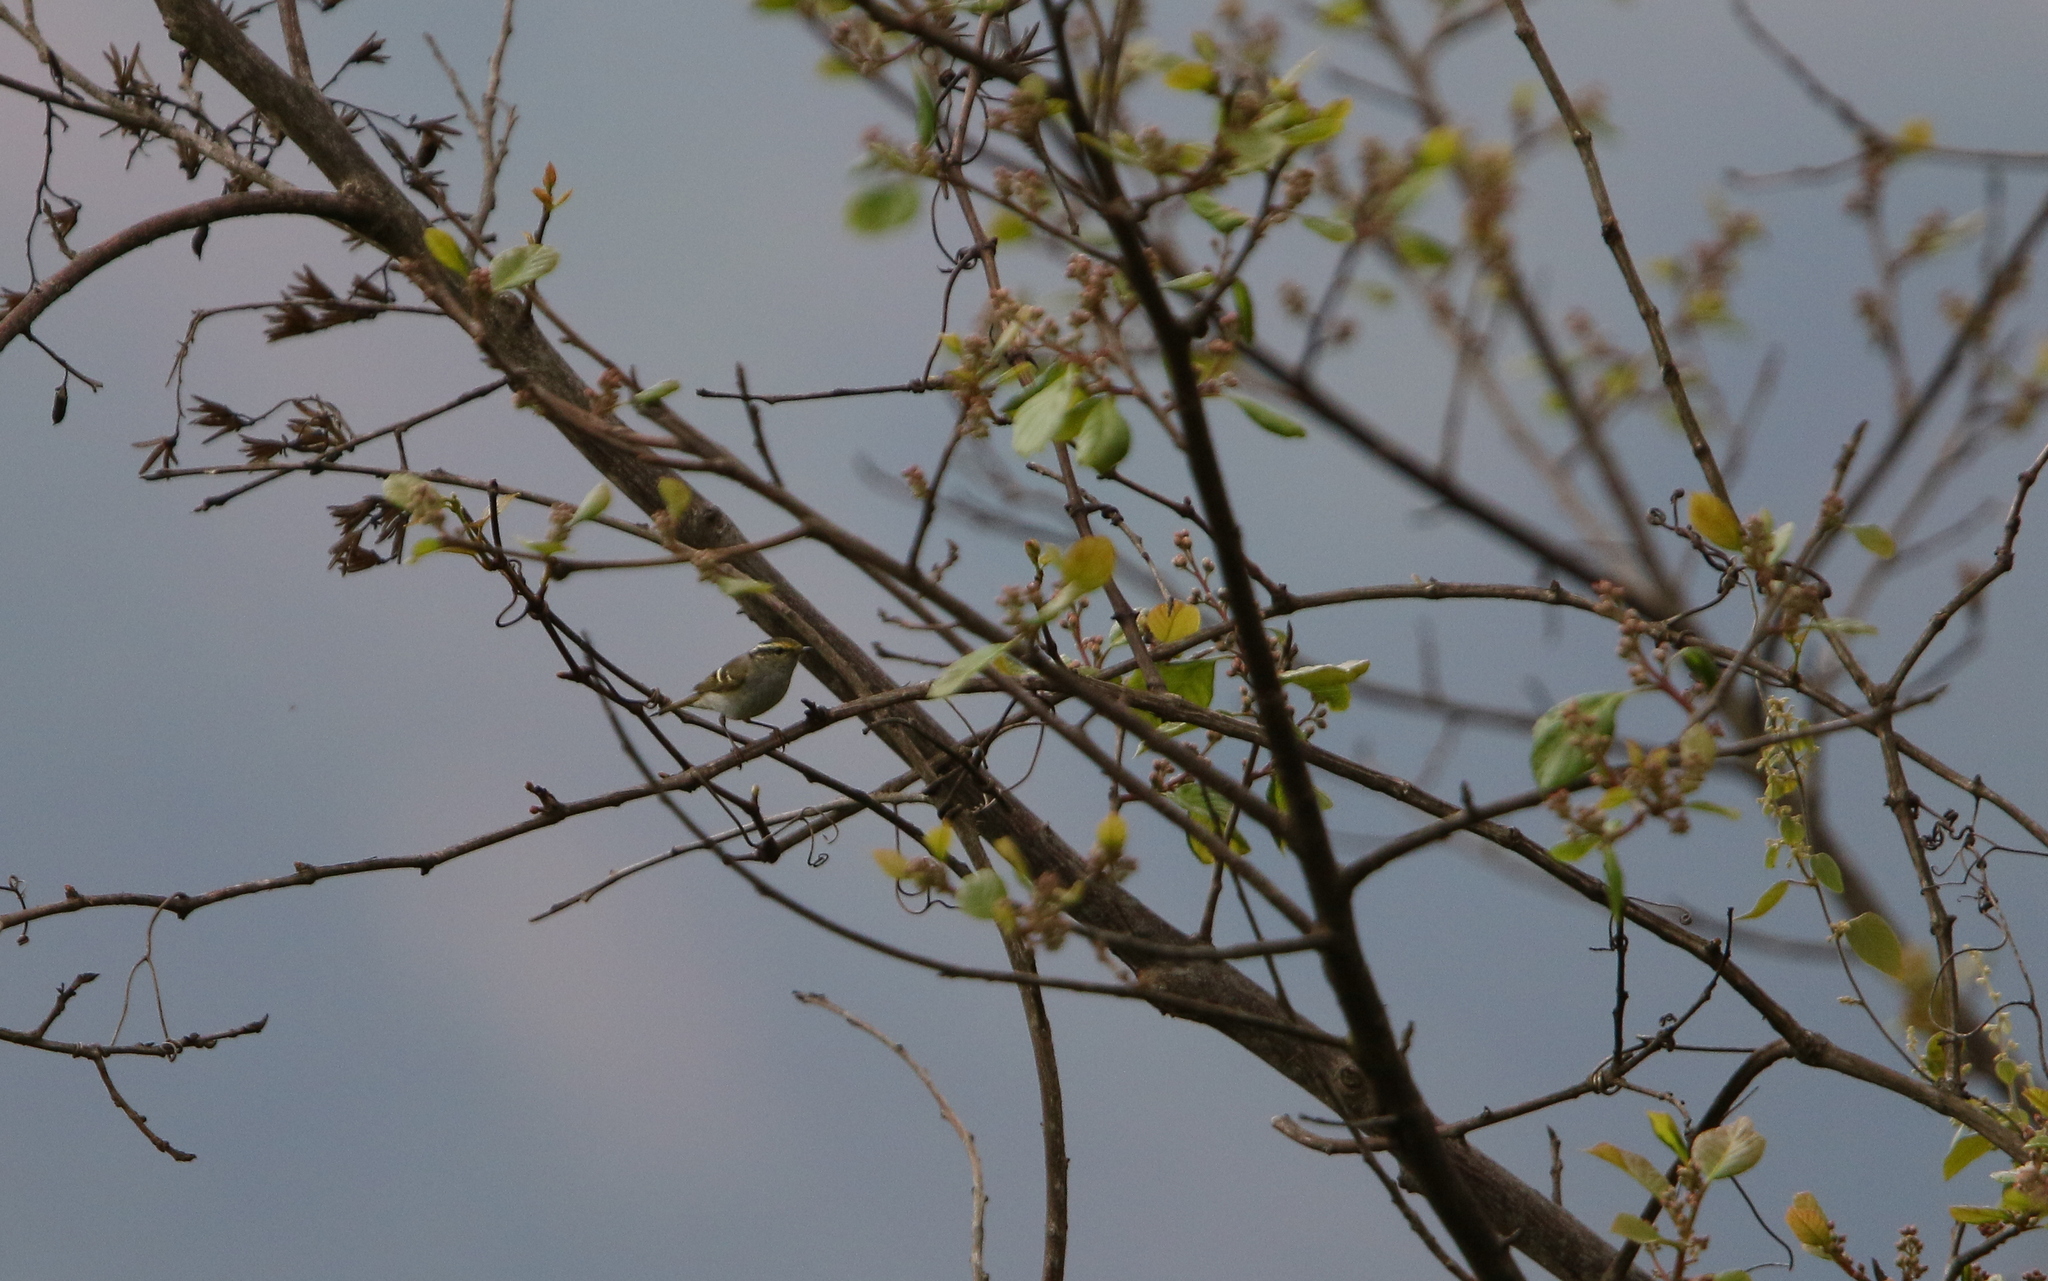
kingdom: Animalia
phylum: Chordata
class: Aves
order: Passeriformes
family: Phylloscopidae
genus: Phylloscopus
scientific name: Phylloscopus proregulus
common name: Pallas's leaf warbler
